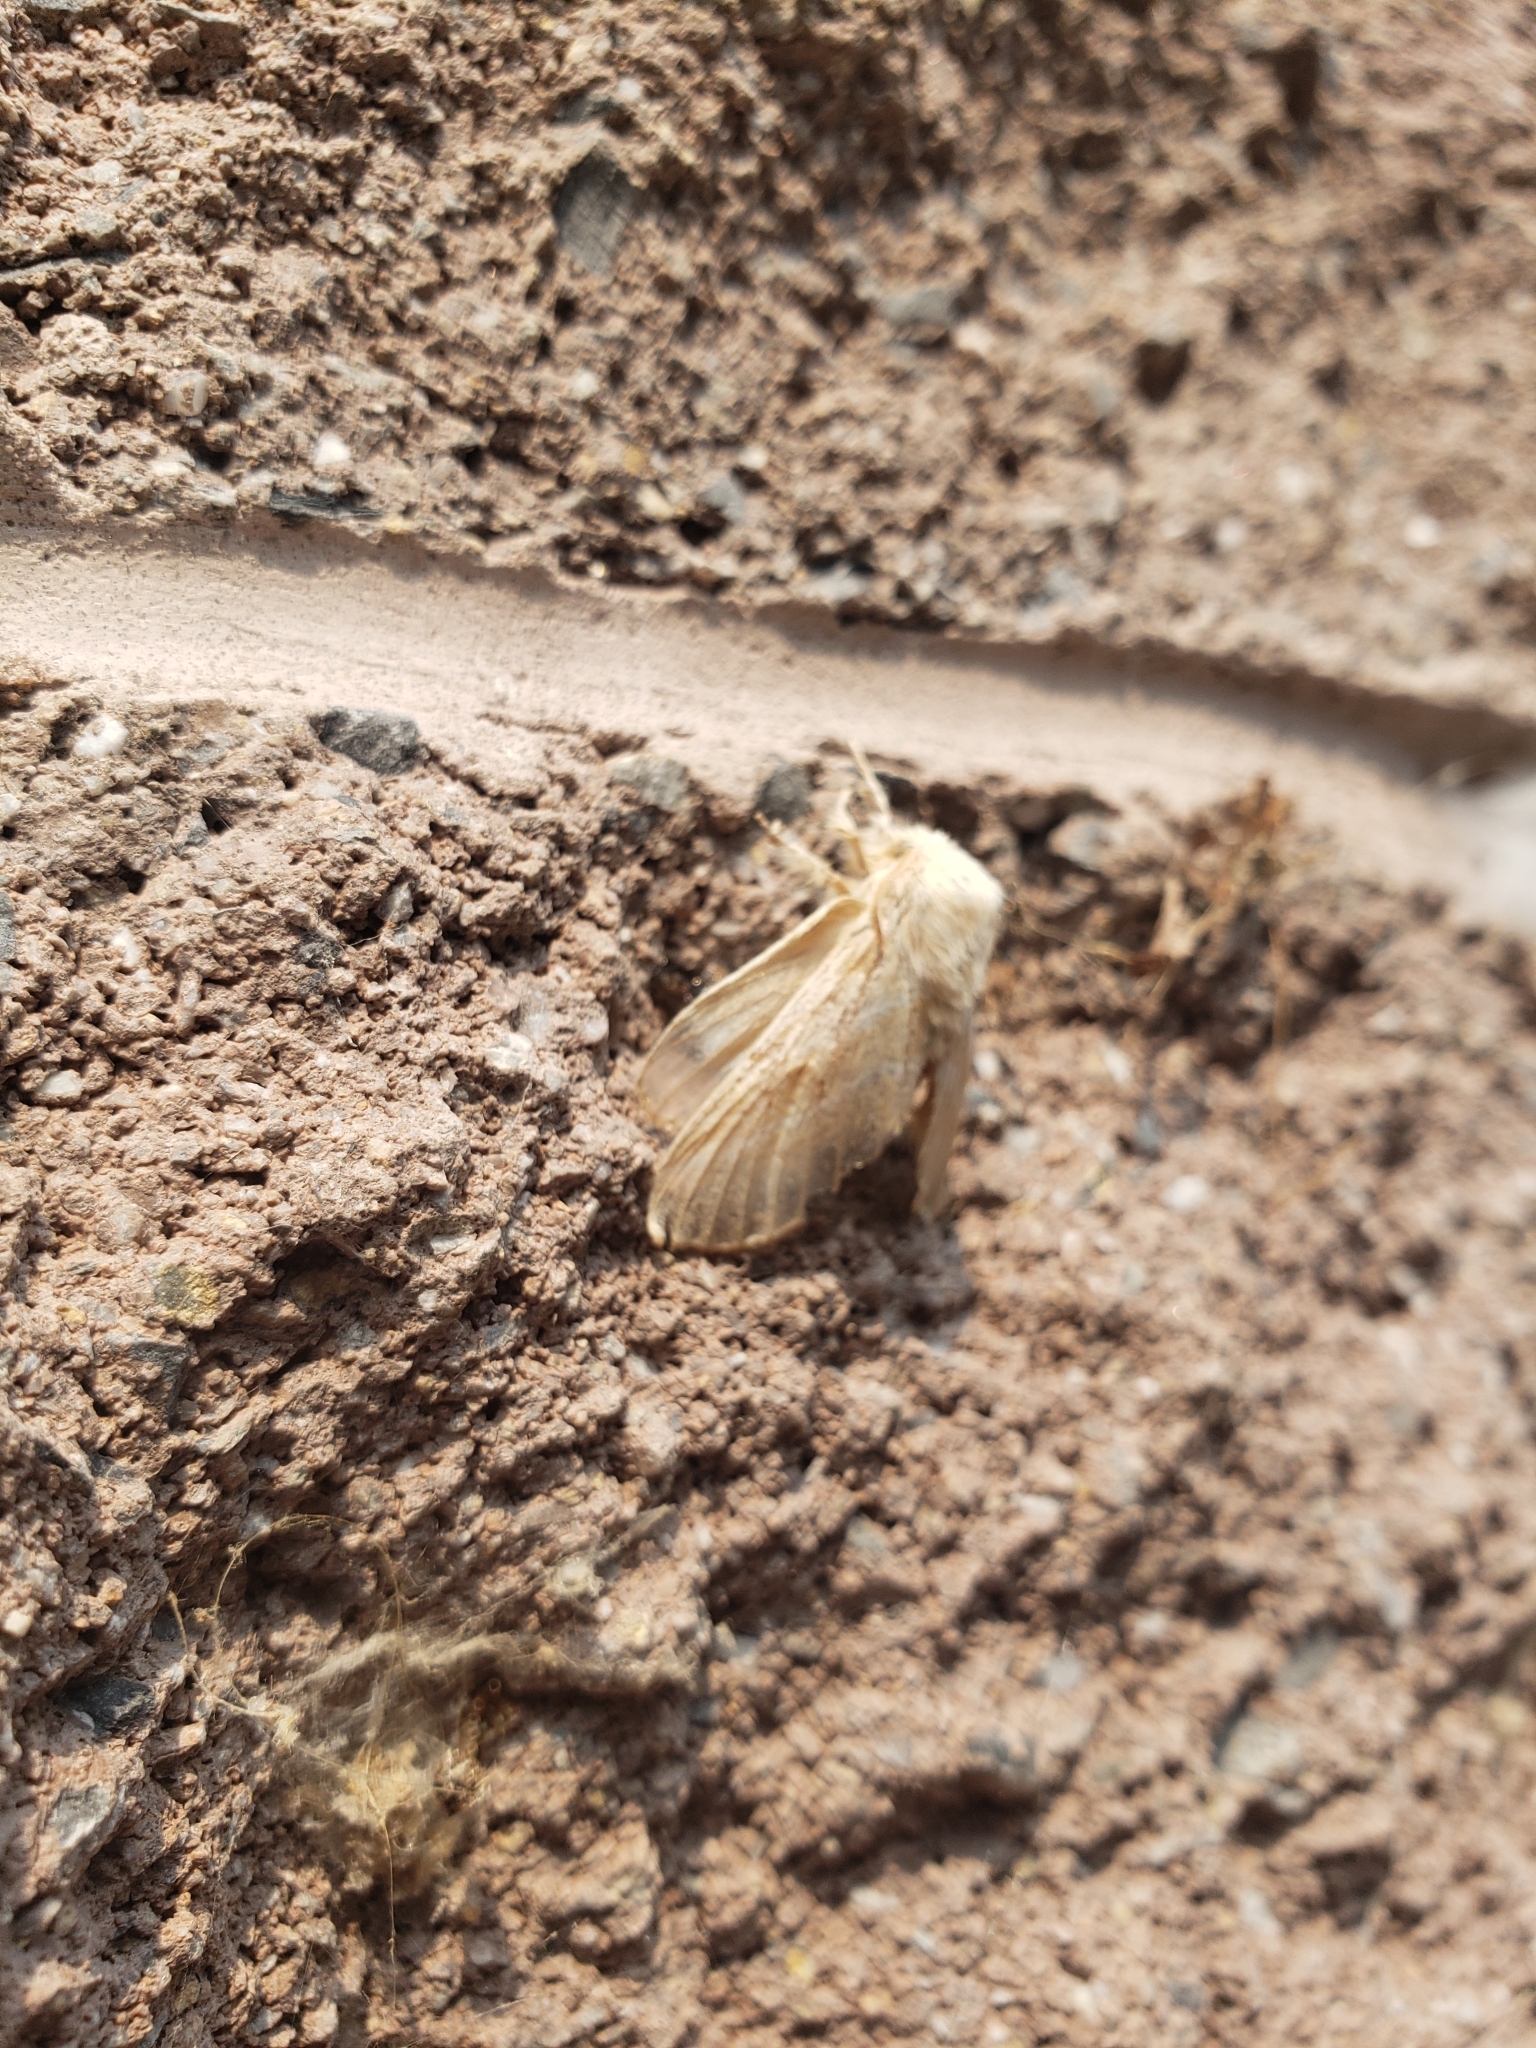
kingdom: Animalia
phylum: Arthropoda
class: Insecta
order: Lepidoptera
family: Lasiocampidae
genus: Malacosoma
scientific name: Malacosoma americana
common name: Eastern tent caterpillar moth
